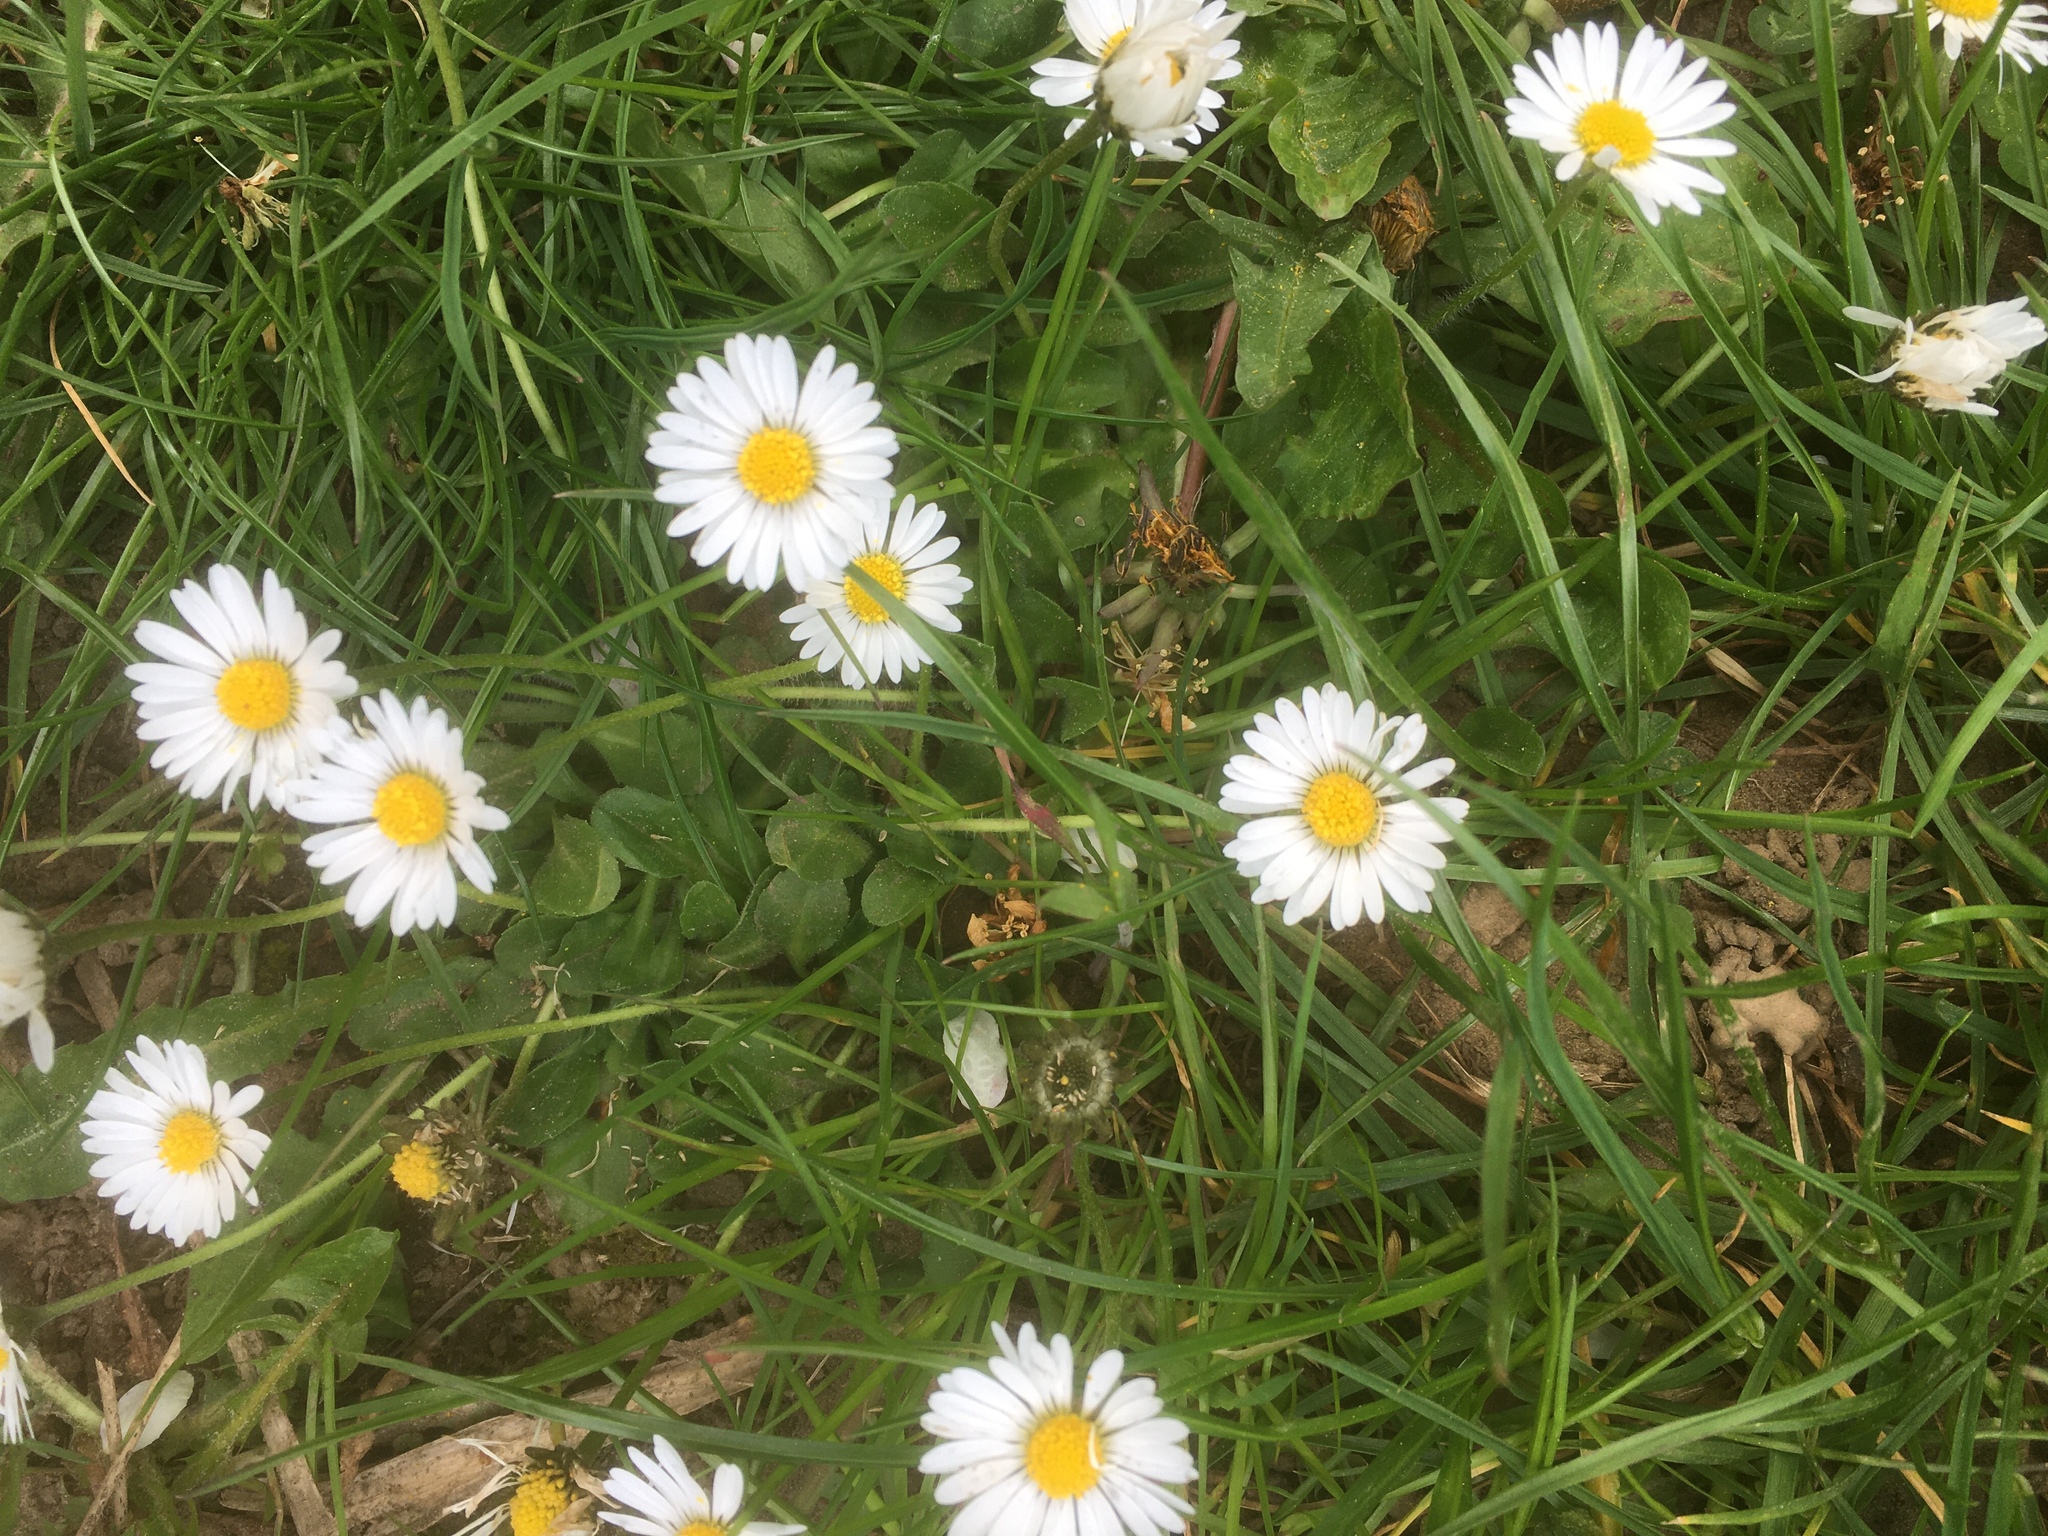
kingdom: Plantae
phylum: Tracheophyta
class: Magnoliopsida
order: Asterales
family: Asteraceae
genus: Bellis
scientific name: Bellis perennis
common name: Lawndaisy
